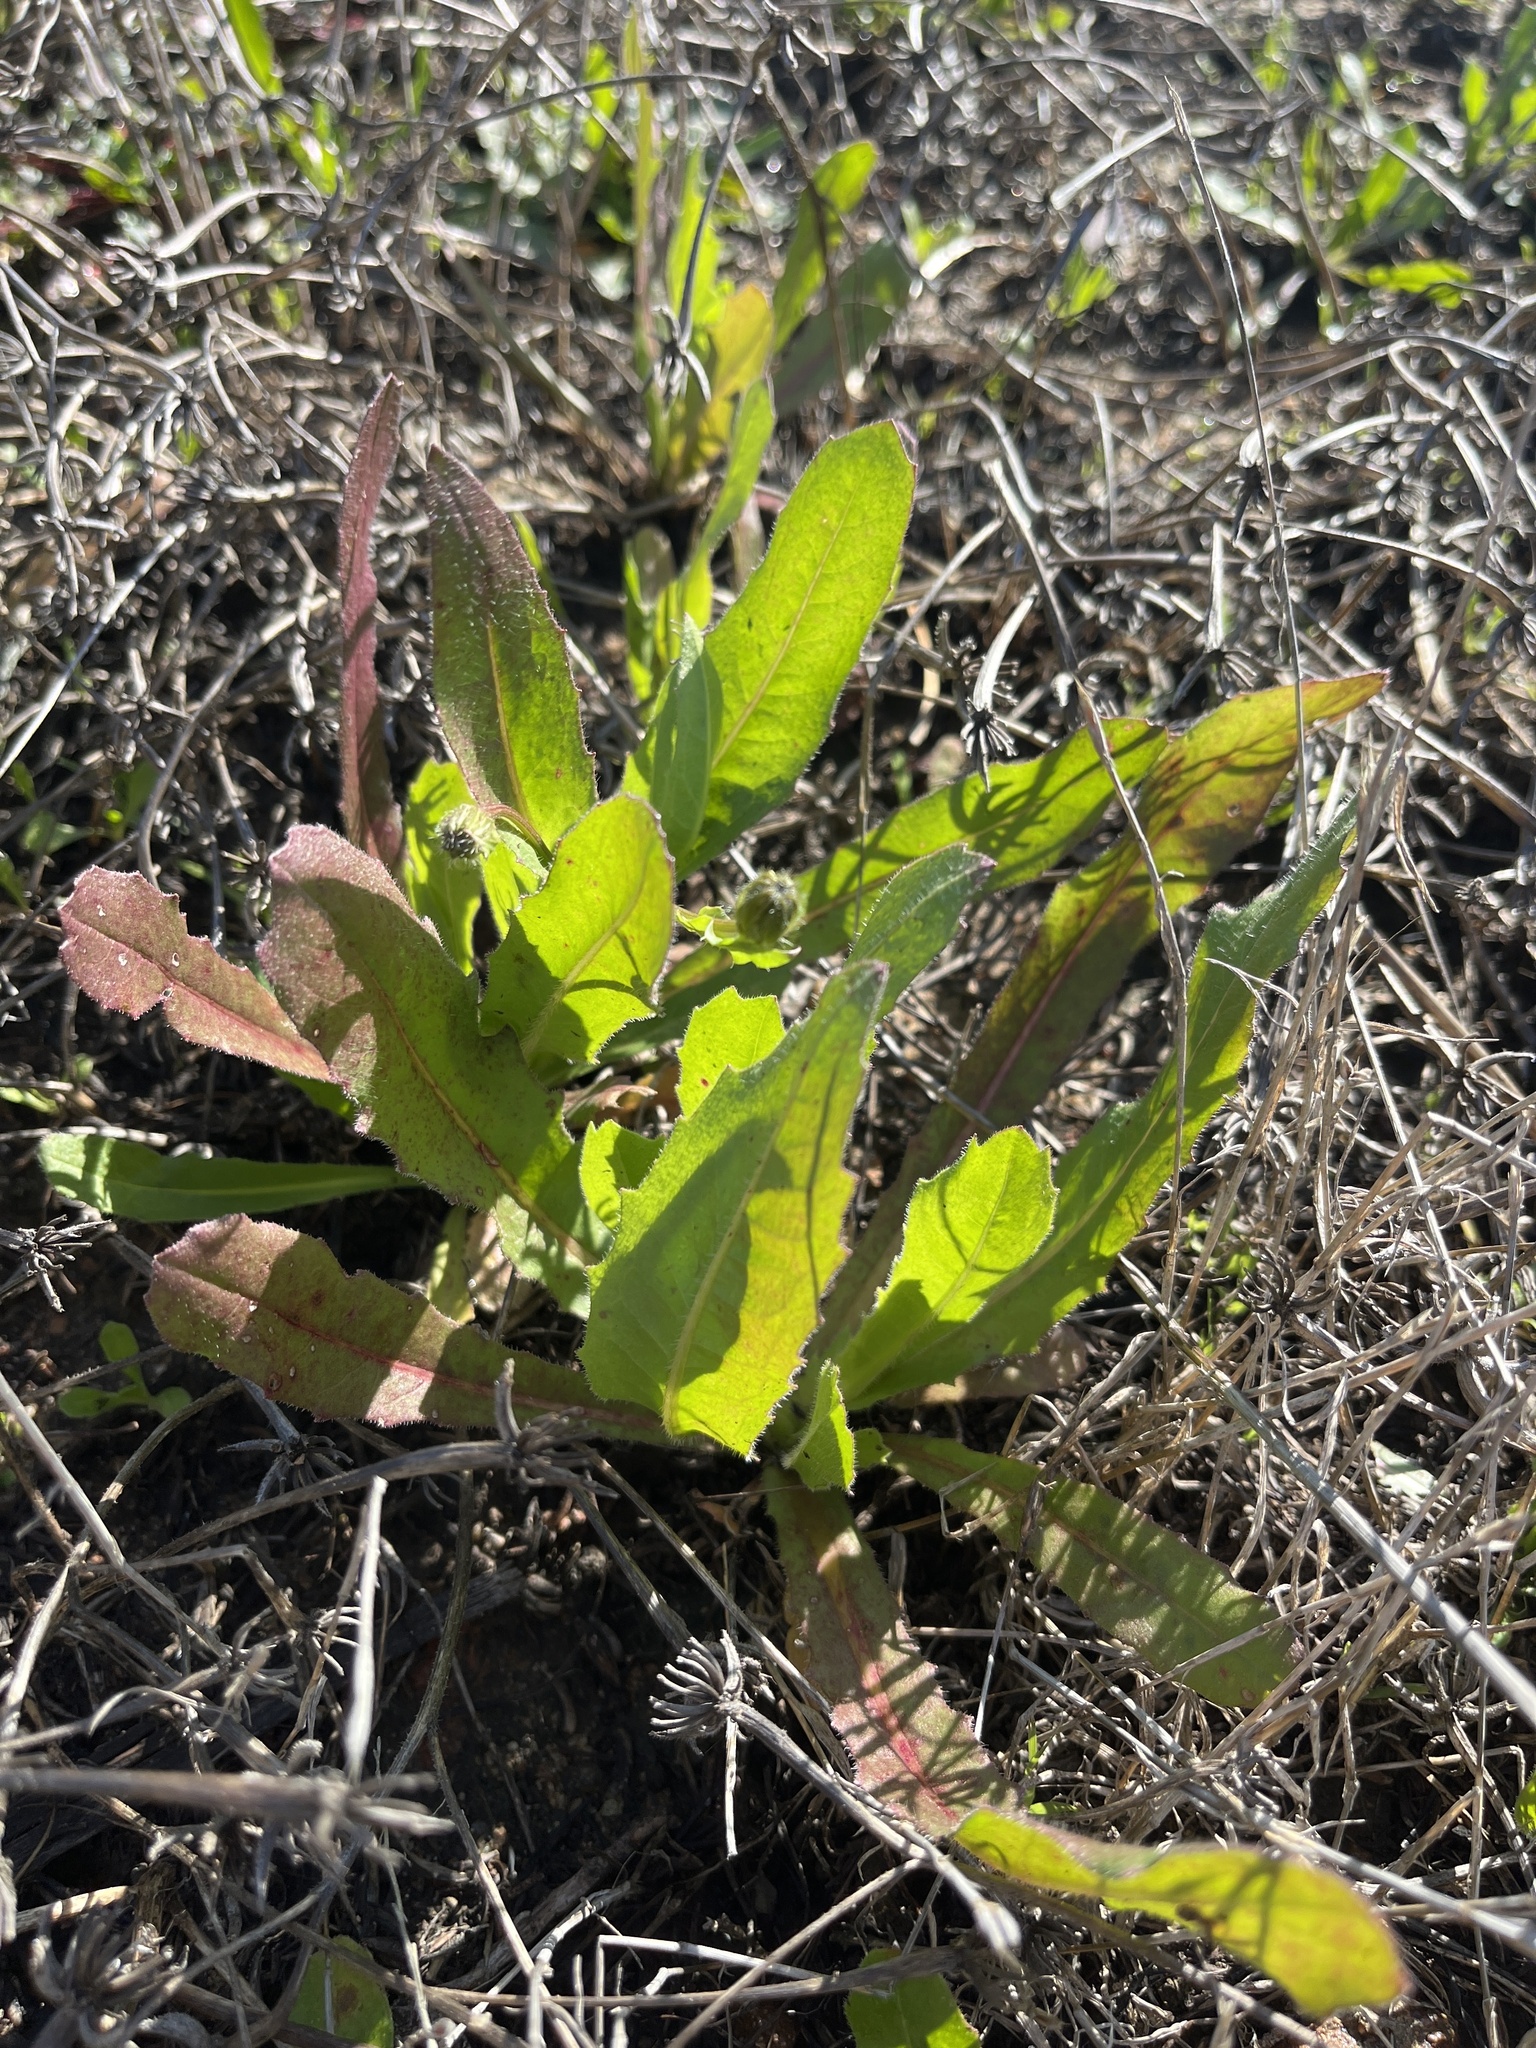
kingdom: Plantae
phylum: Tracheophyta
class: Magnoliopsida
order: Asterales
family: Asteraceae
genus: Hedypnois
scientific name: Hedypnois rhagadioloides
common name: Cretan weed
